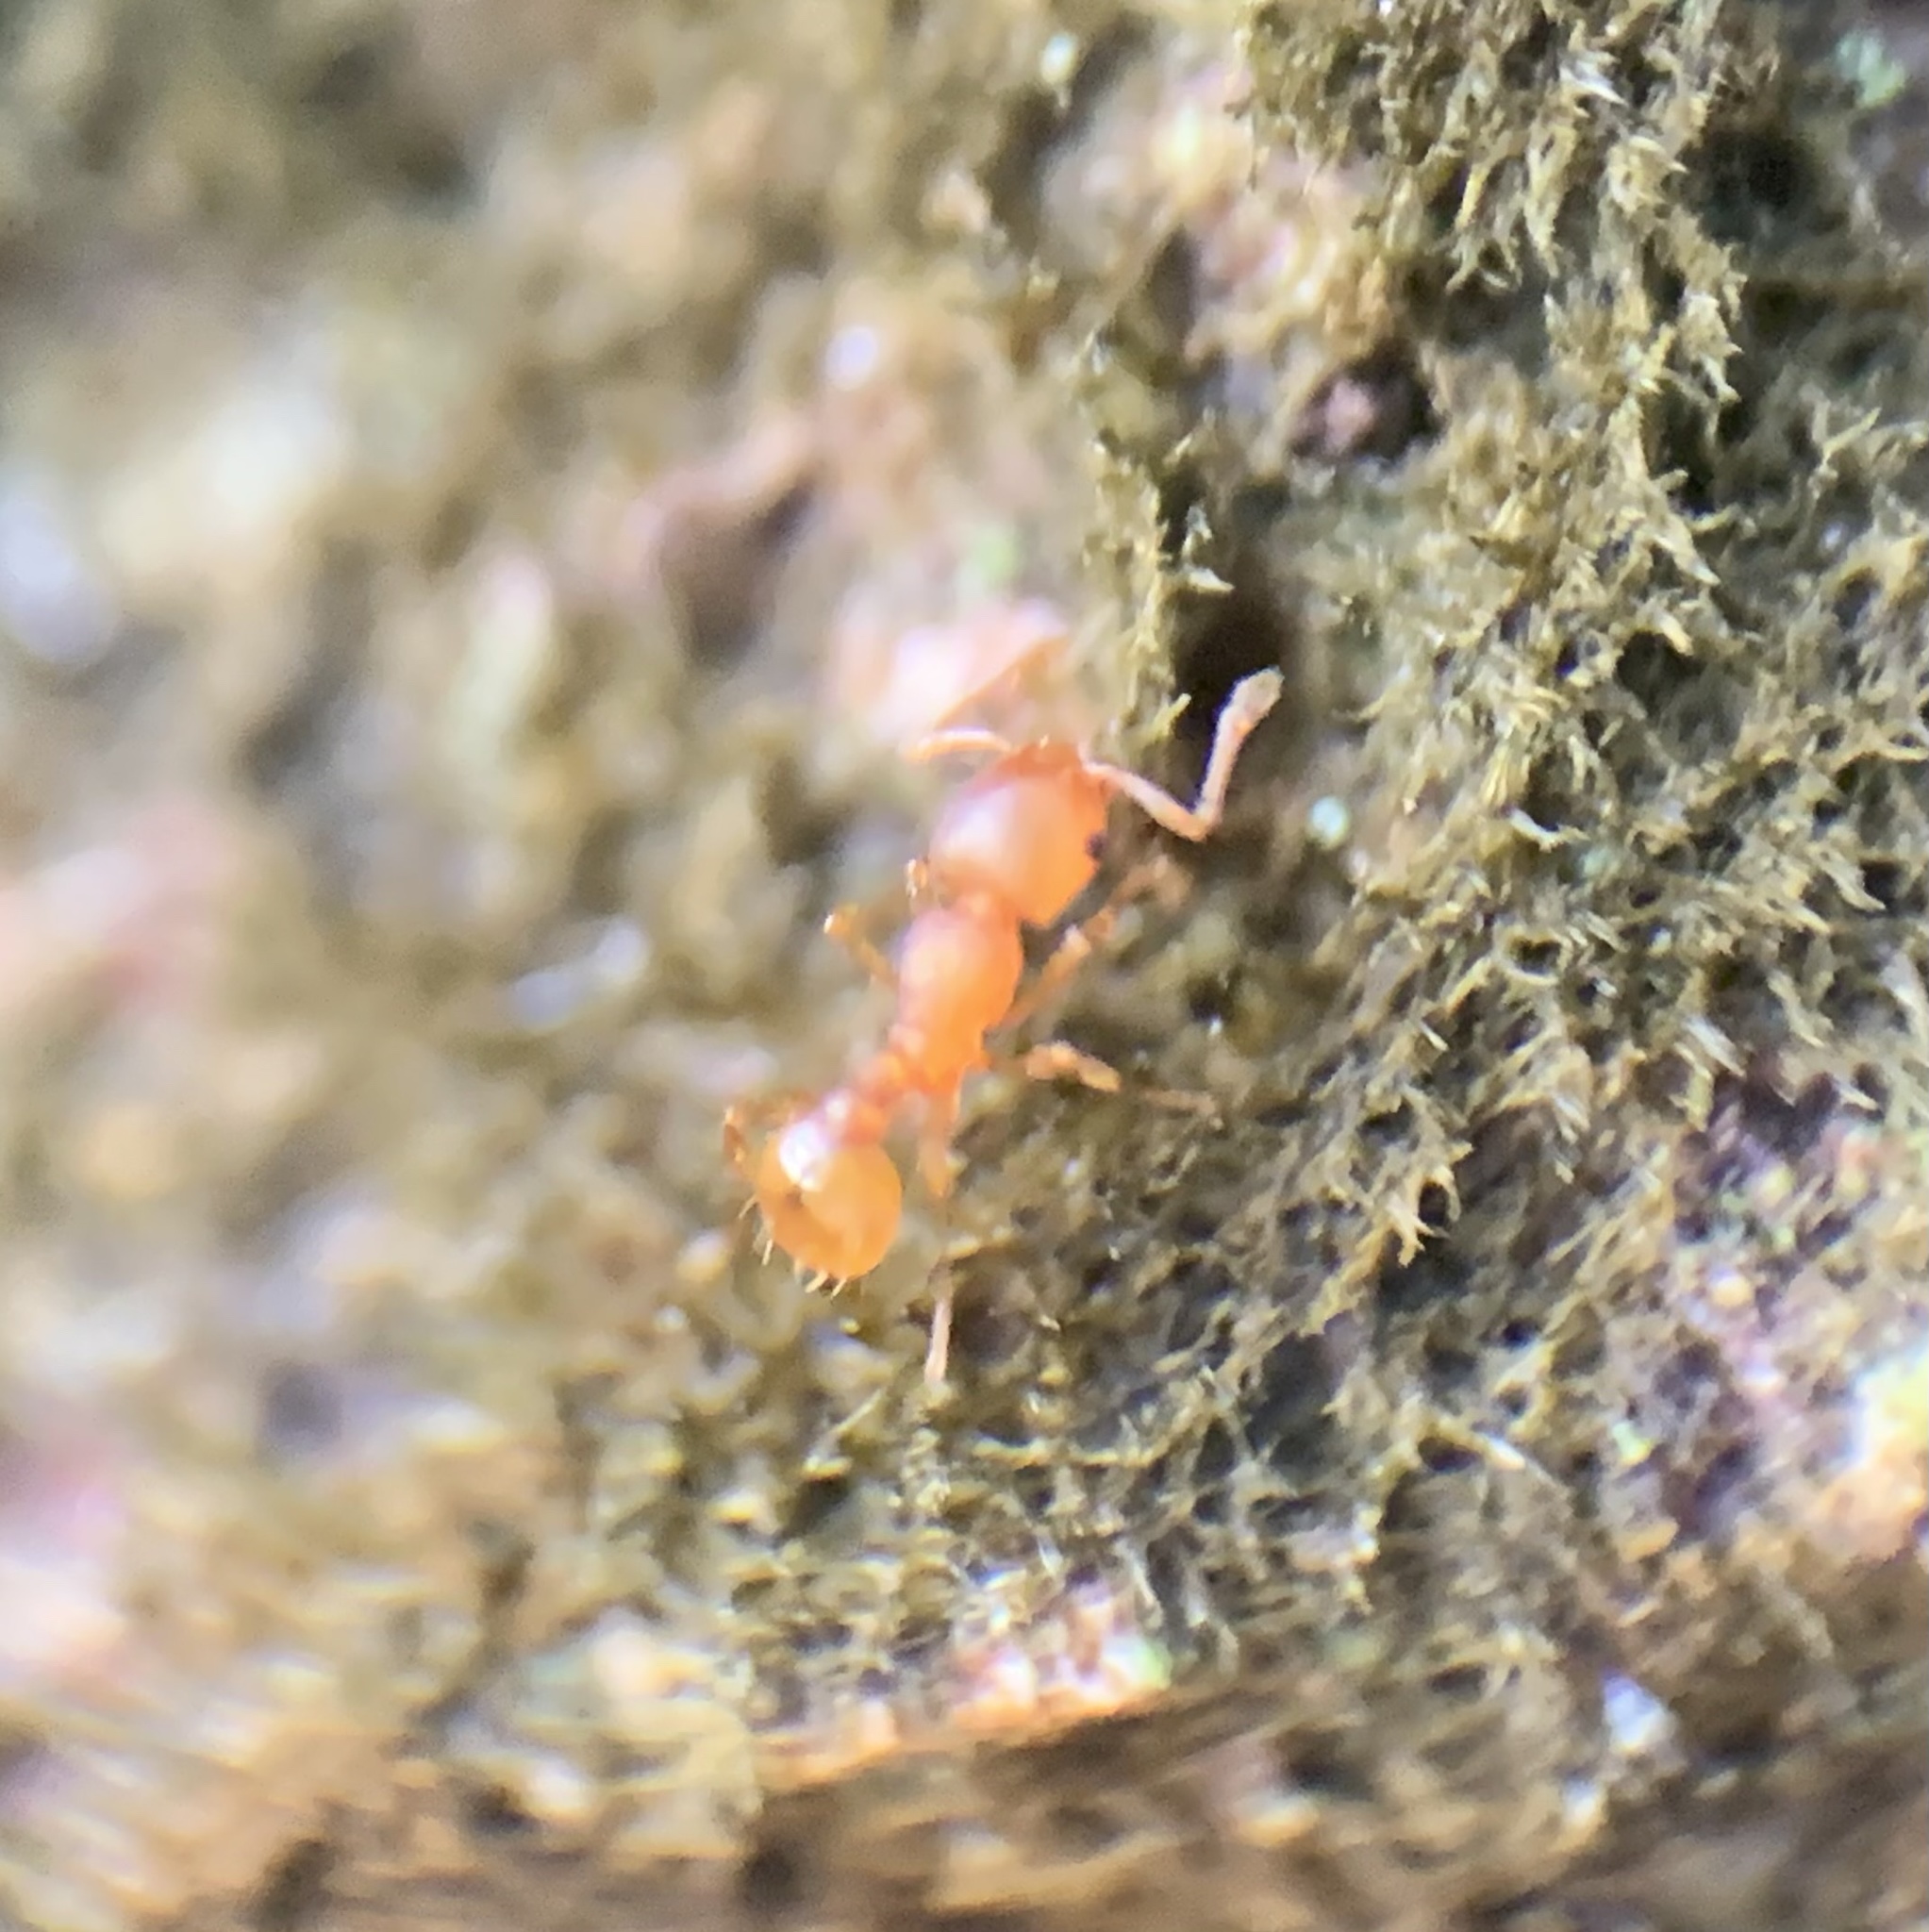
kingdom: Animalia
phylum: Arthropoda
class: Insecta
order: Hymenoptera
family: Formicidae
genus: Wasmannia
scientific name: Wasmannia auropunctata
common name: Little fire ant
